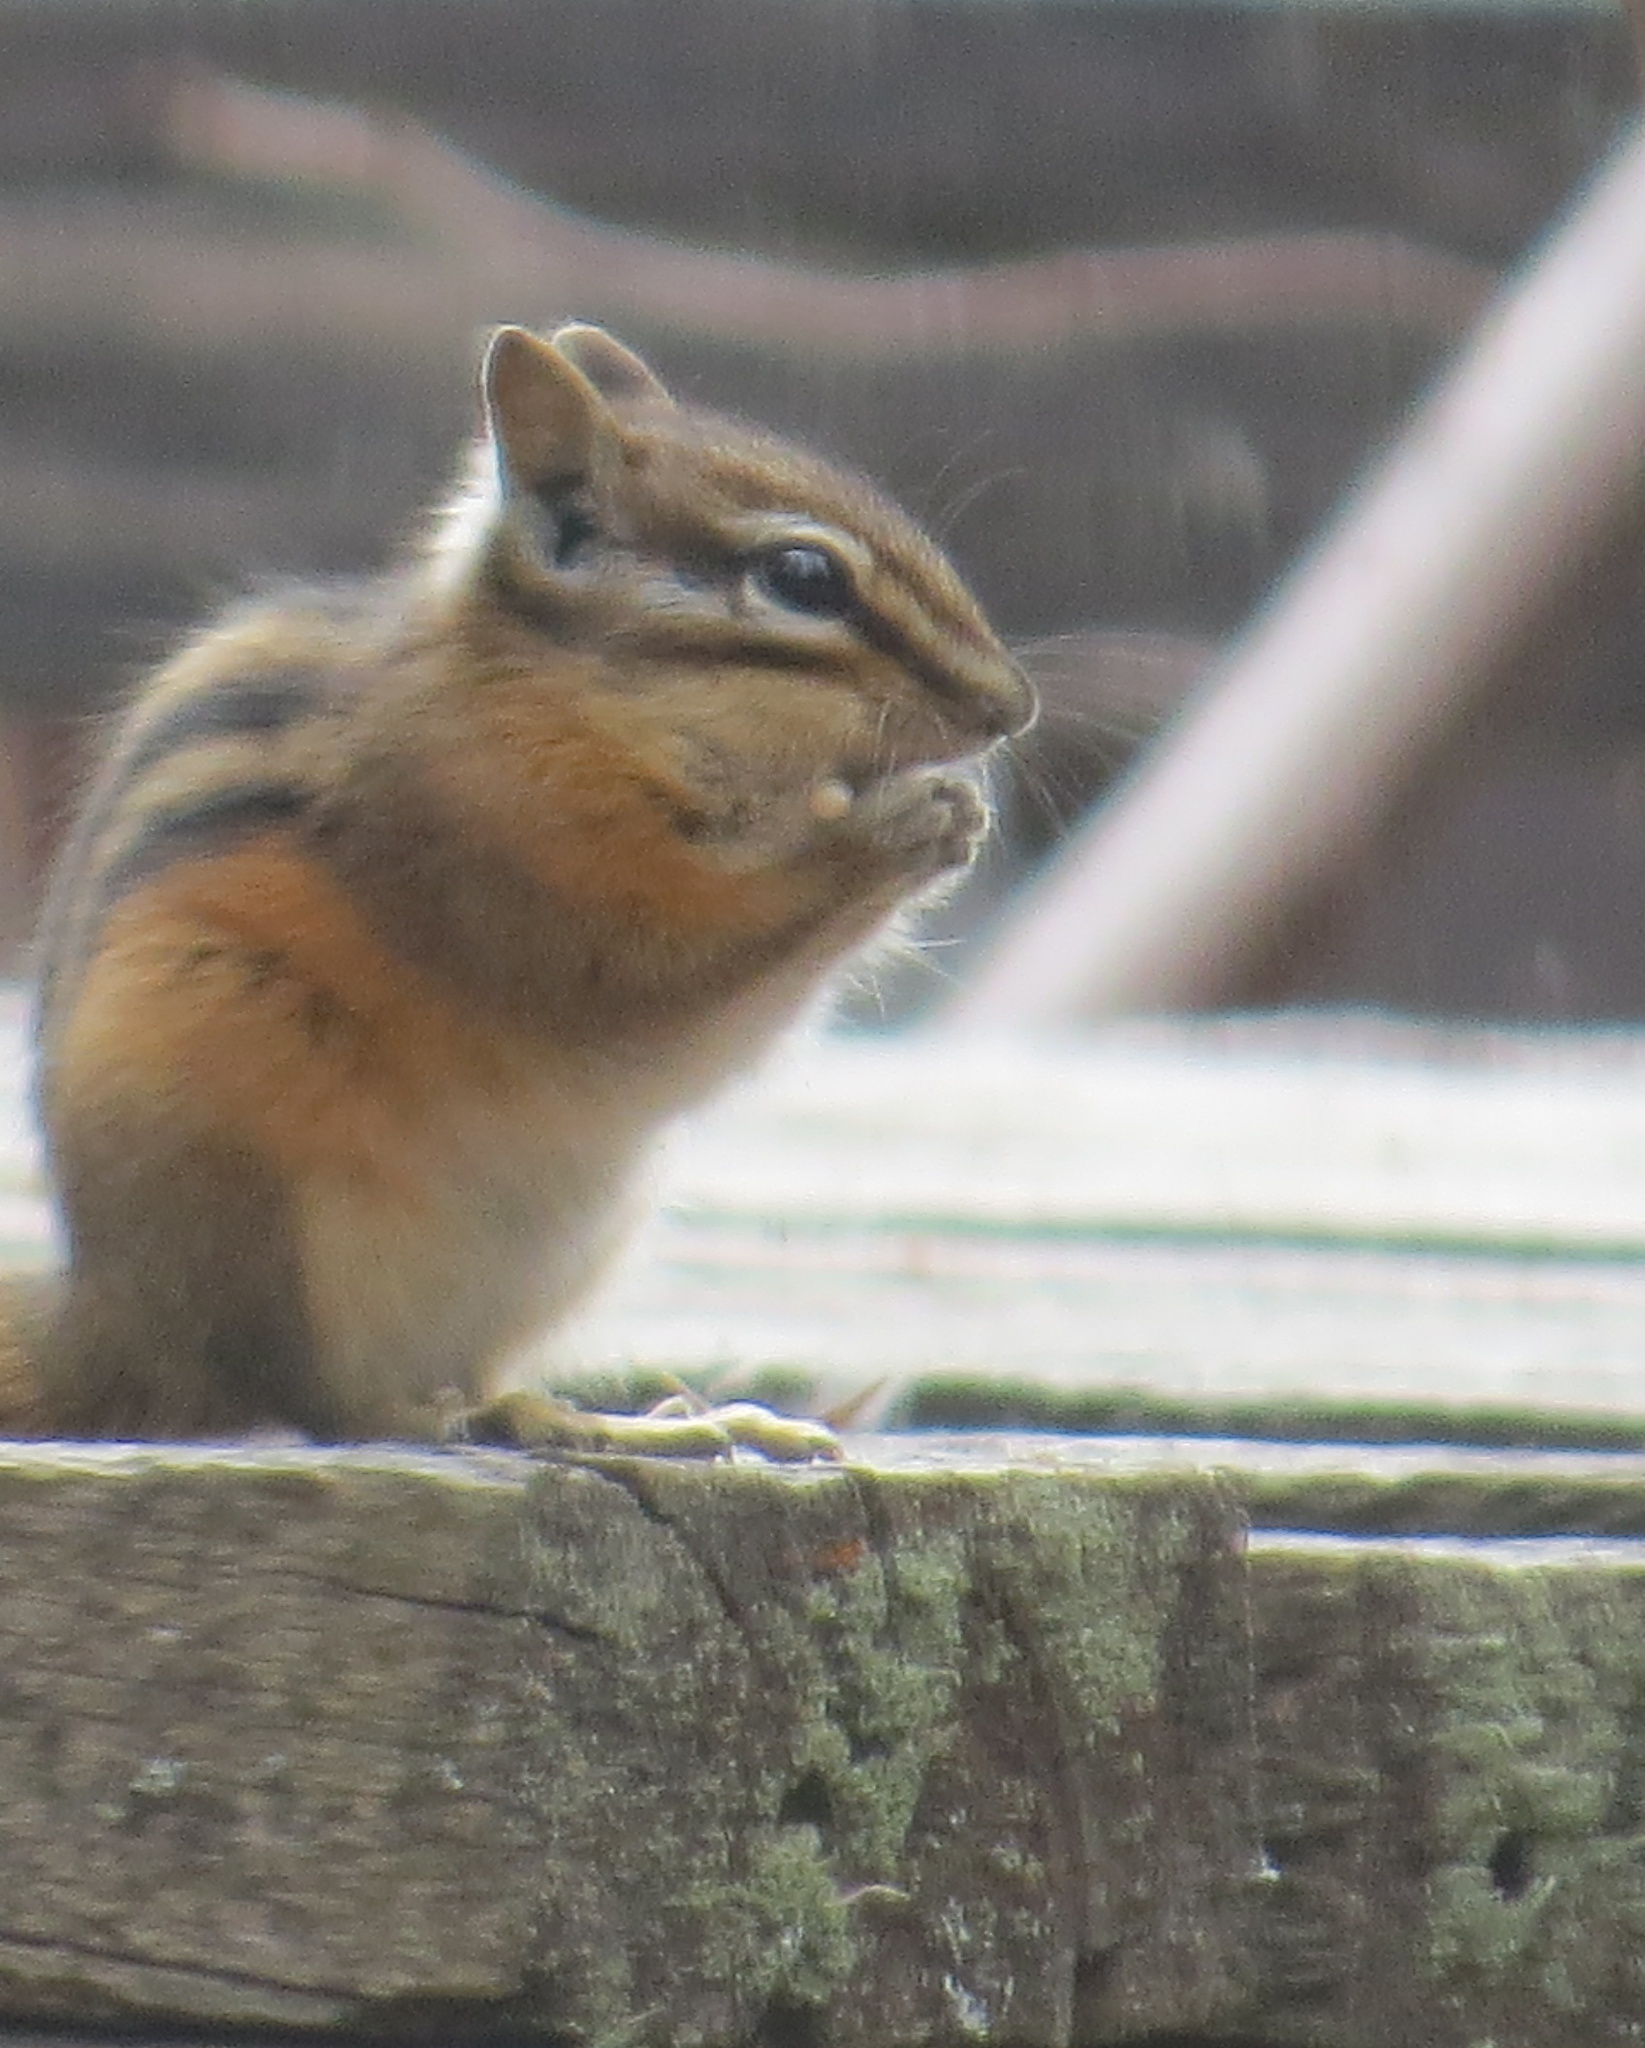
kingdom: Animalia
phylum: Chordata
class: Mammalia
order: Rodentia
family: Sciuridae
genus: Tamias
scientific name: Tamias minimus
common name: Least chipmunk
